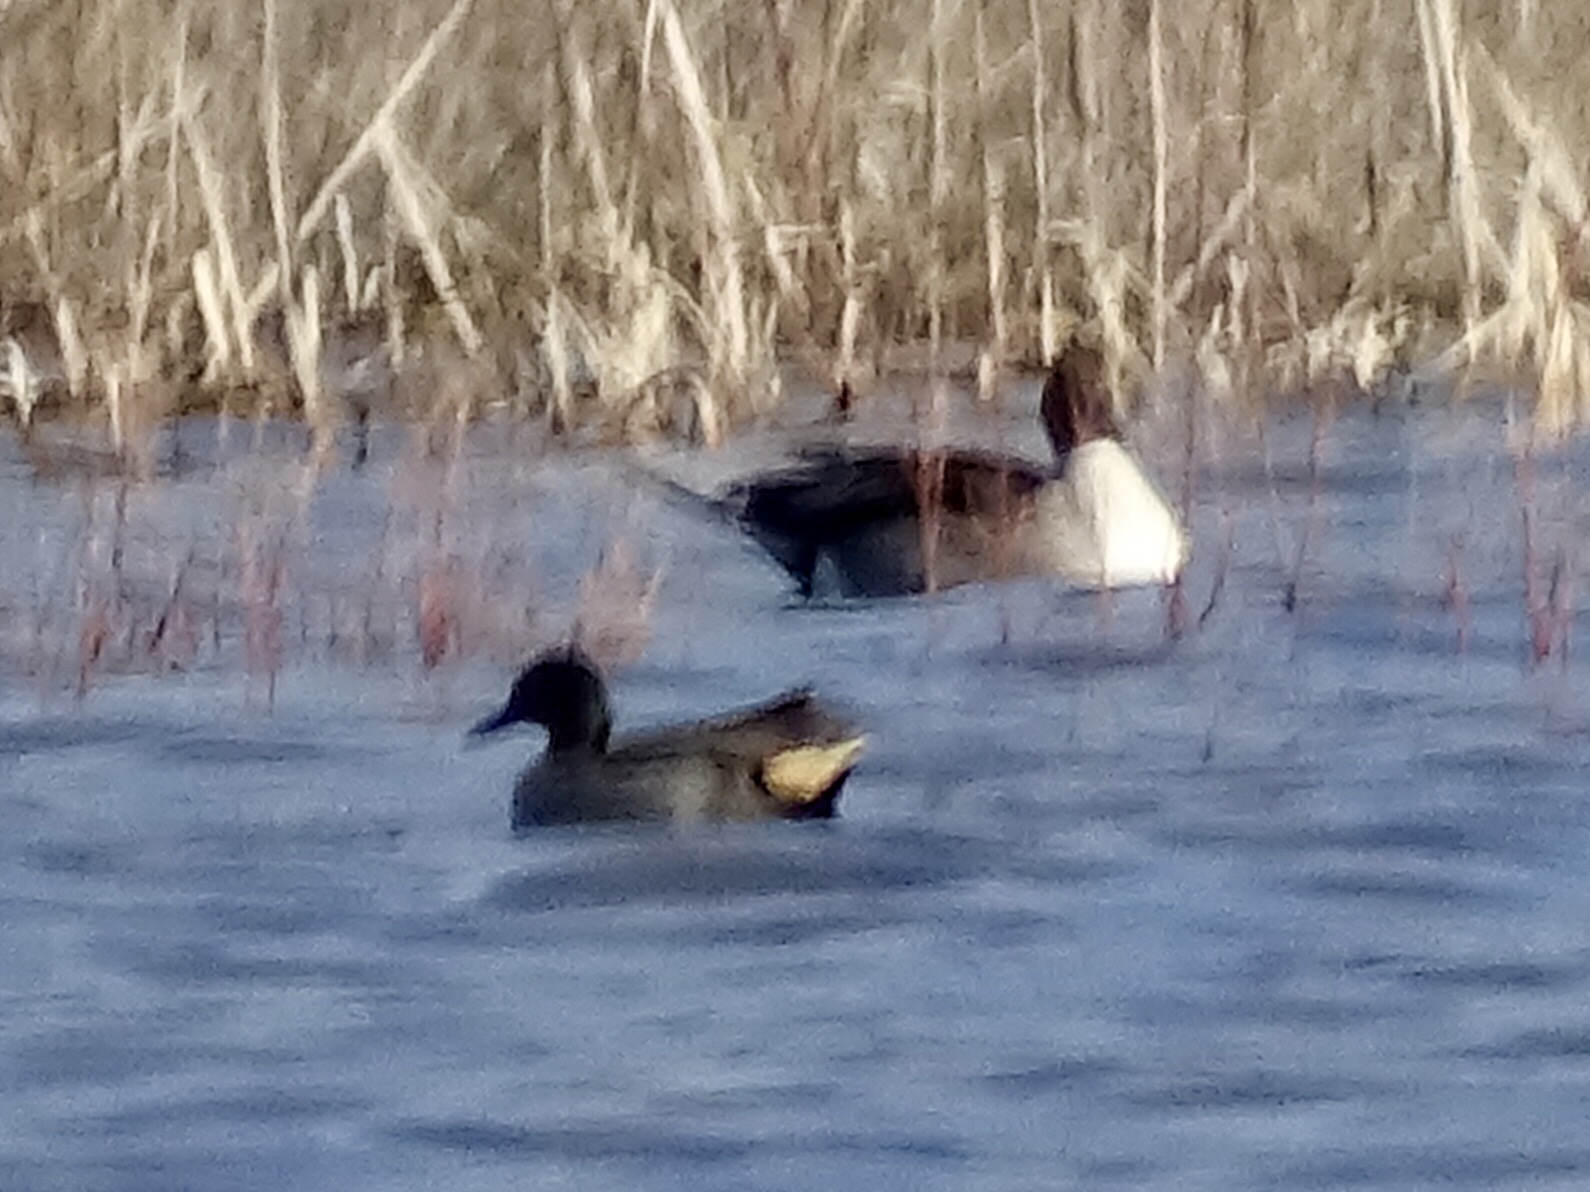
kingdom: Animalia
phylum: Chordata
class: Aves
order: Anseriformes
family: Anatidae
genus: Anas
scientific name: Anas crecca
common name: Eurasian teal
